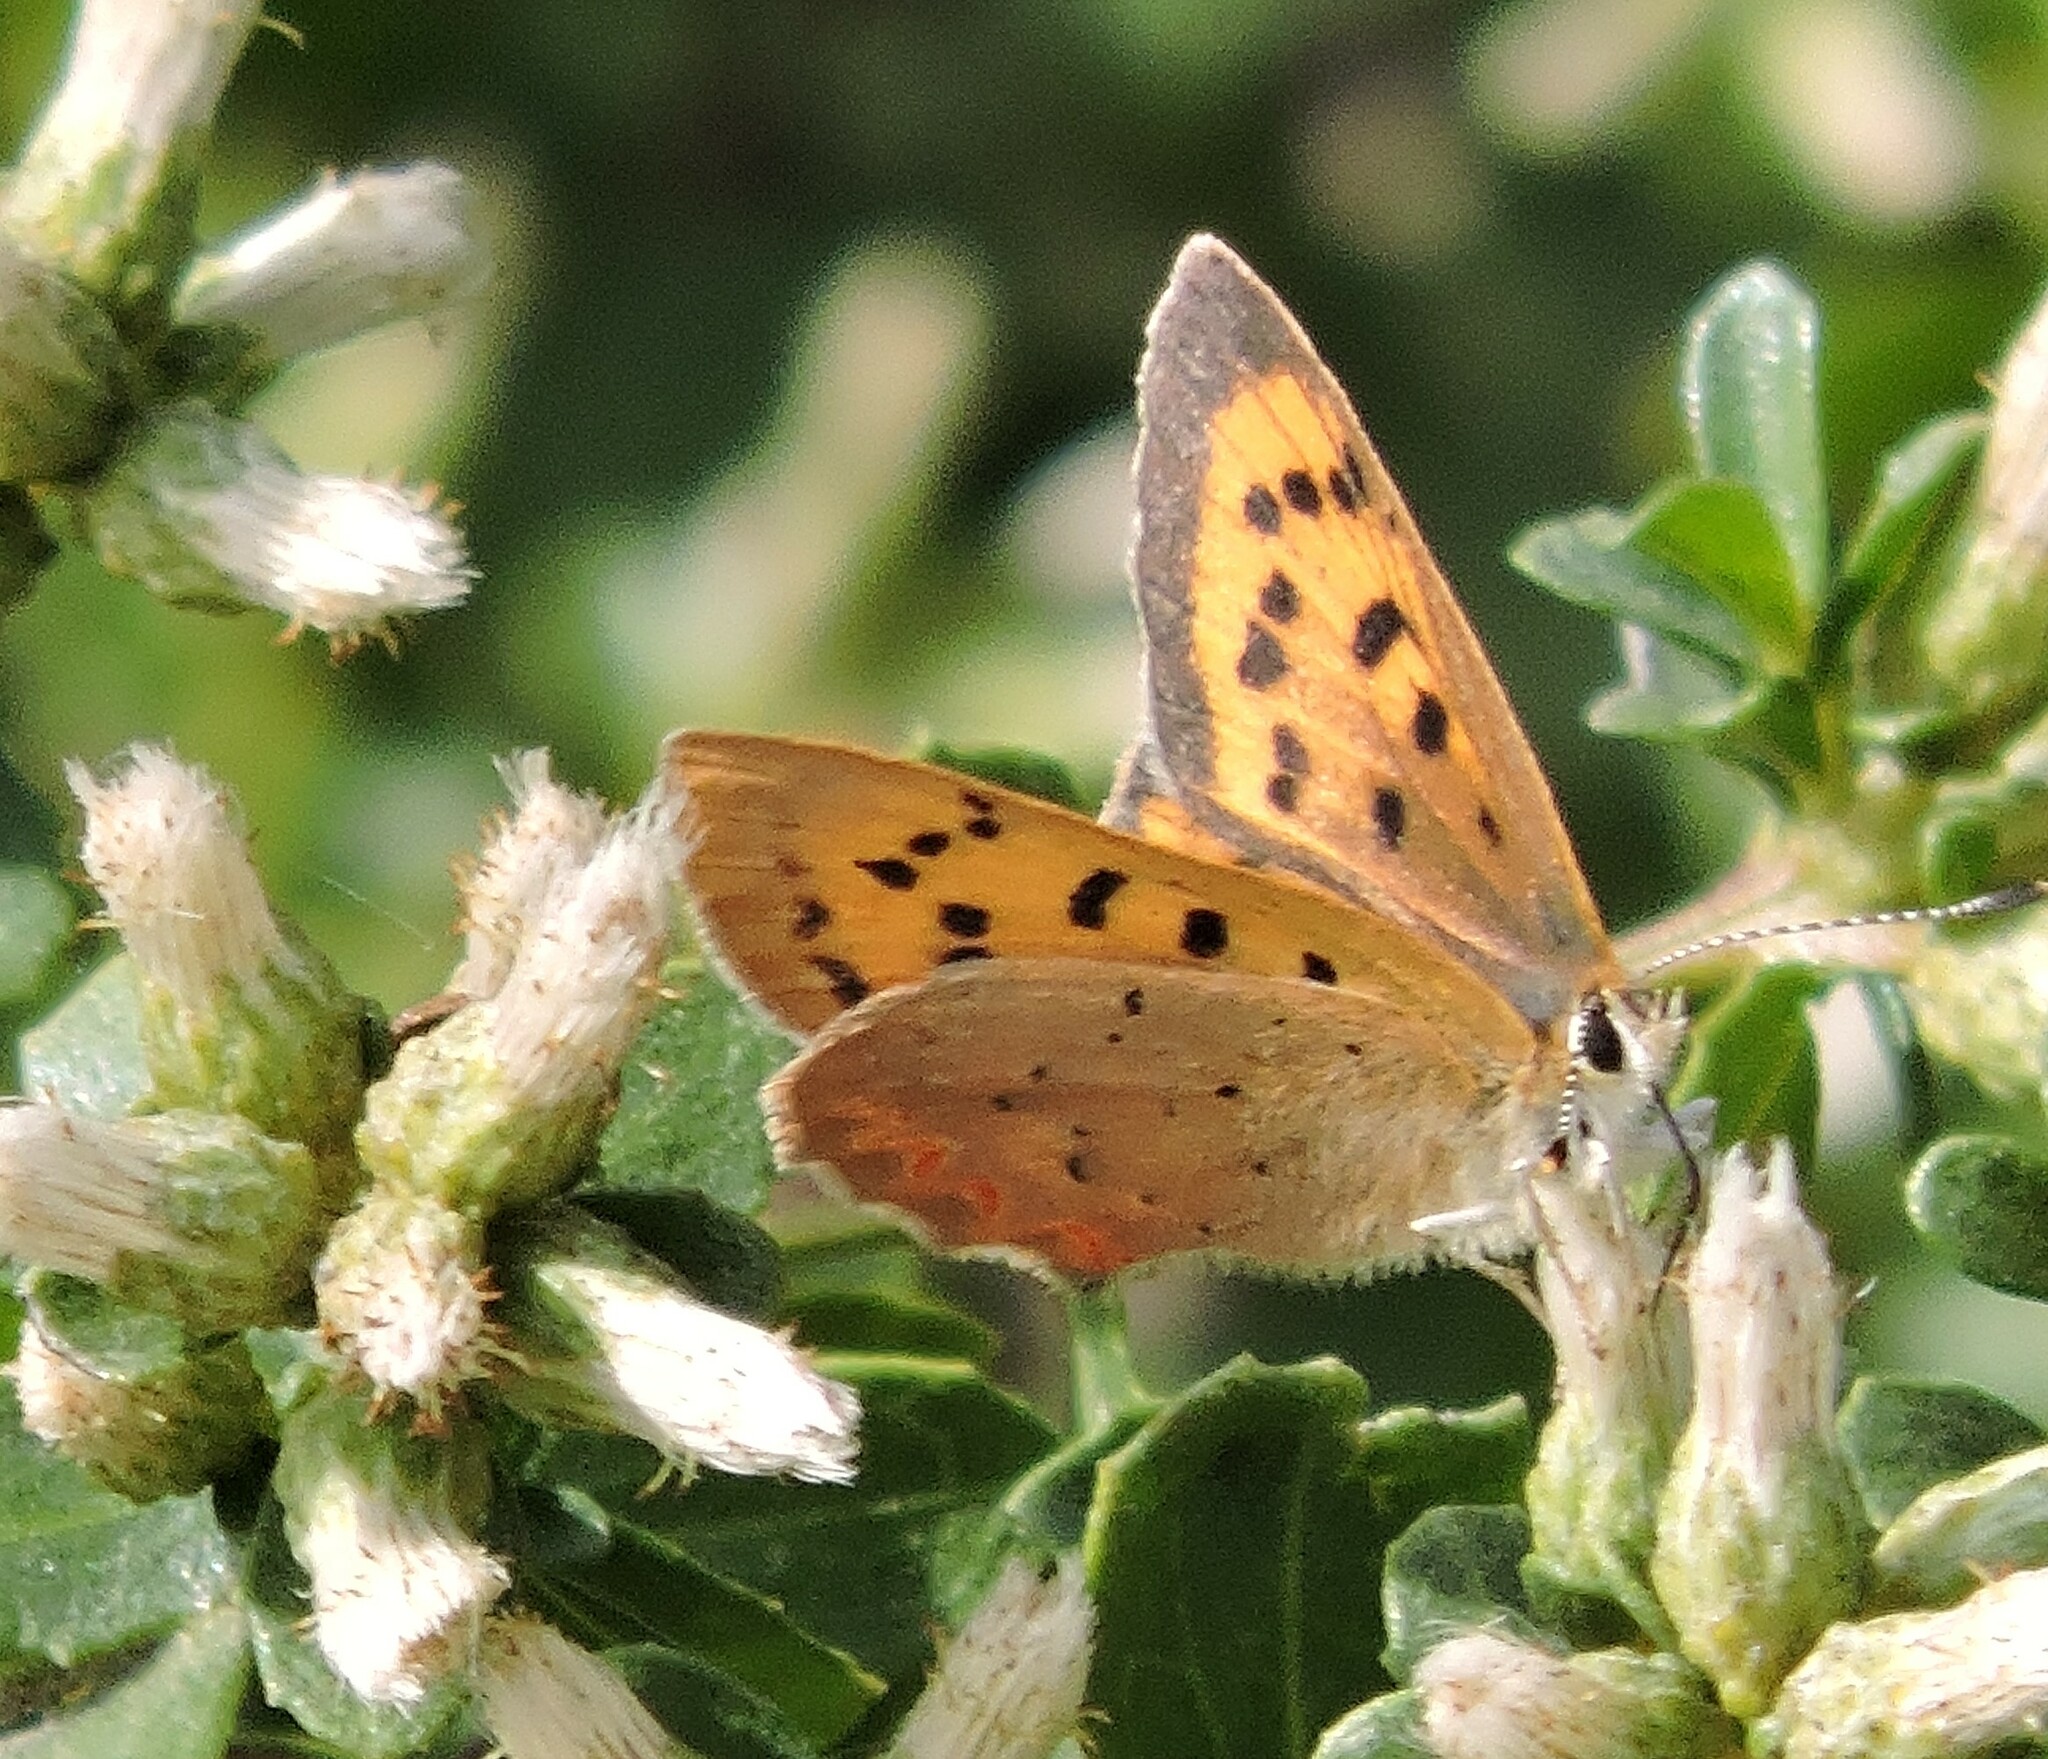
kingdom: Animalia
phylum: Arthropoda
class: Insecta
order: Lepidoptera
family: Lycaenidae
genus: Tharsalea
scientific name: Tharsalea helloides
